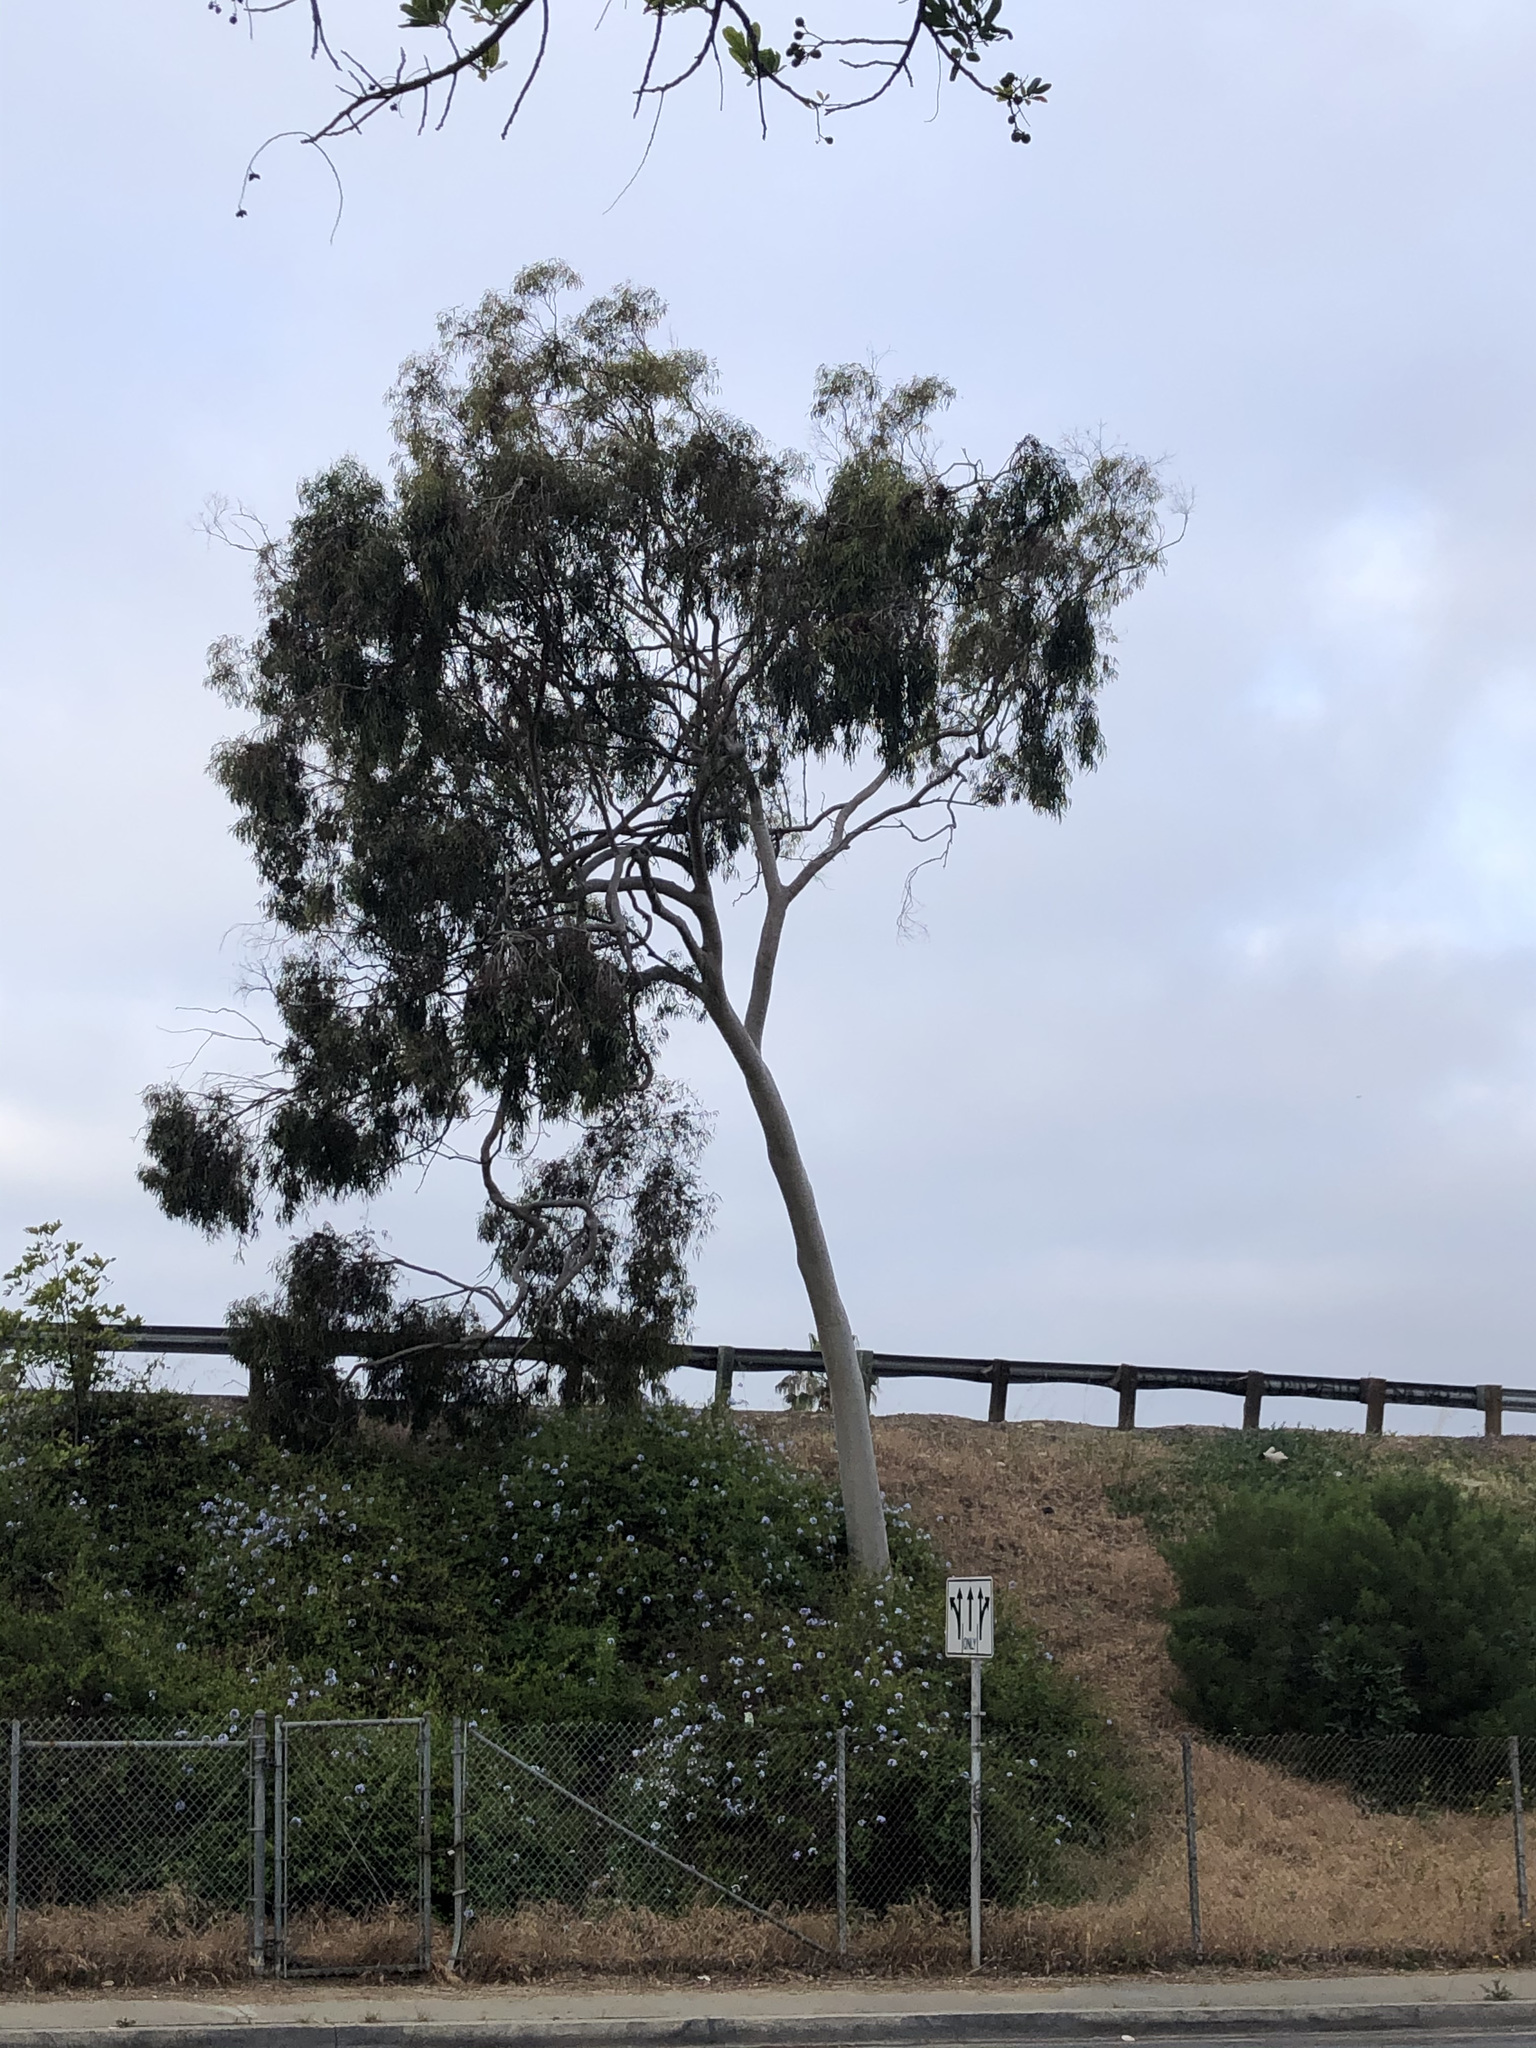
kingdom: Plantae
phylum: Tracheophyta
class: Magnoliopsida
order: Myrtales
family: Myrtaceae
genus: Corymbia
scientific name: Corymbia citriodora
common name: Lemonscented gum
